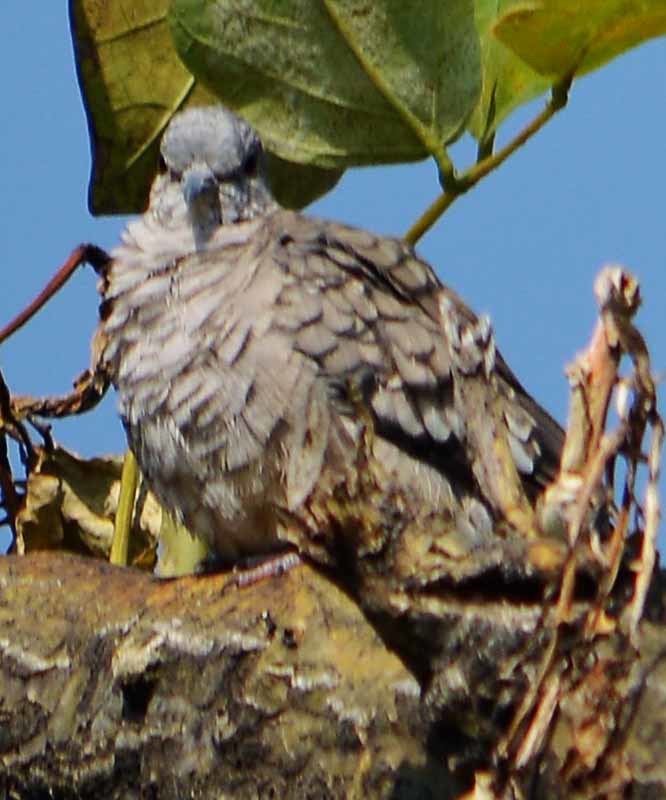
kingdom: Animalia
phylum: Chordata
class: Aves
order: Columbiformes
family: Columbidae
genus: Columbina
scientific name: Columbina inca
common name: Inca dove
